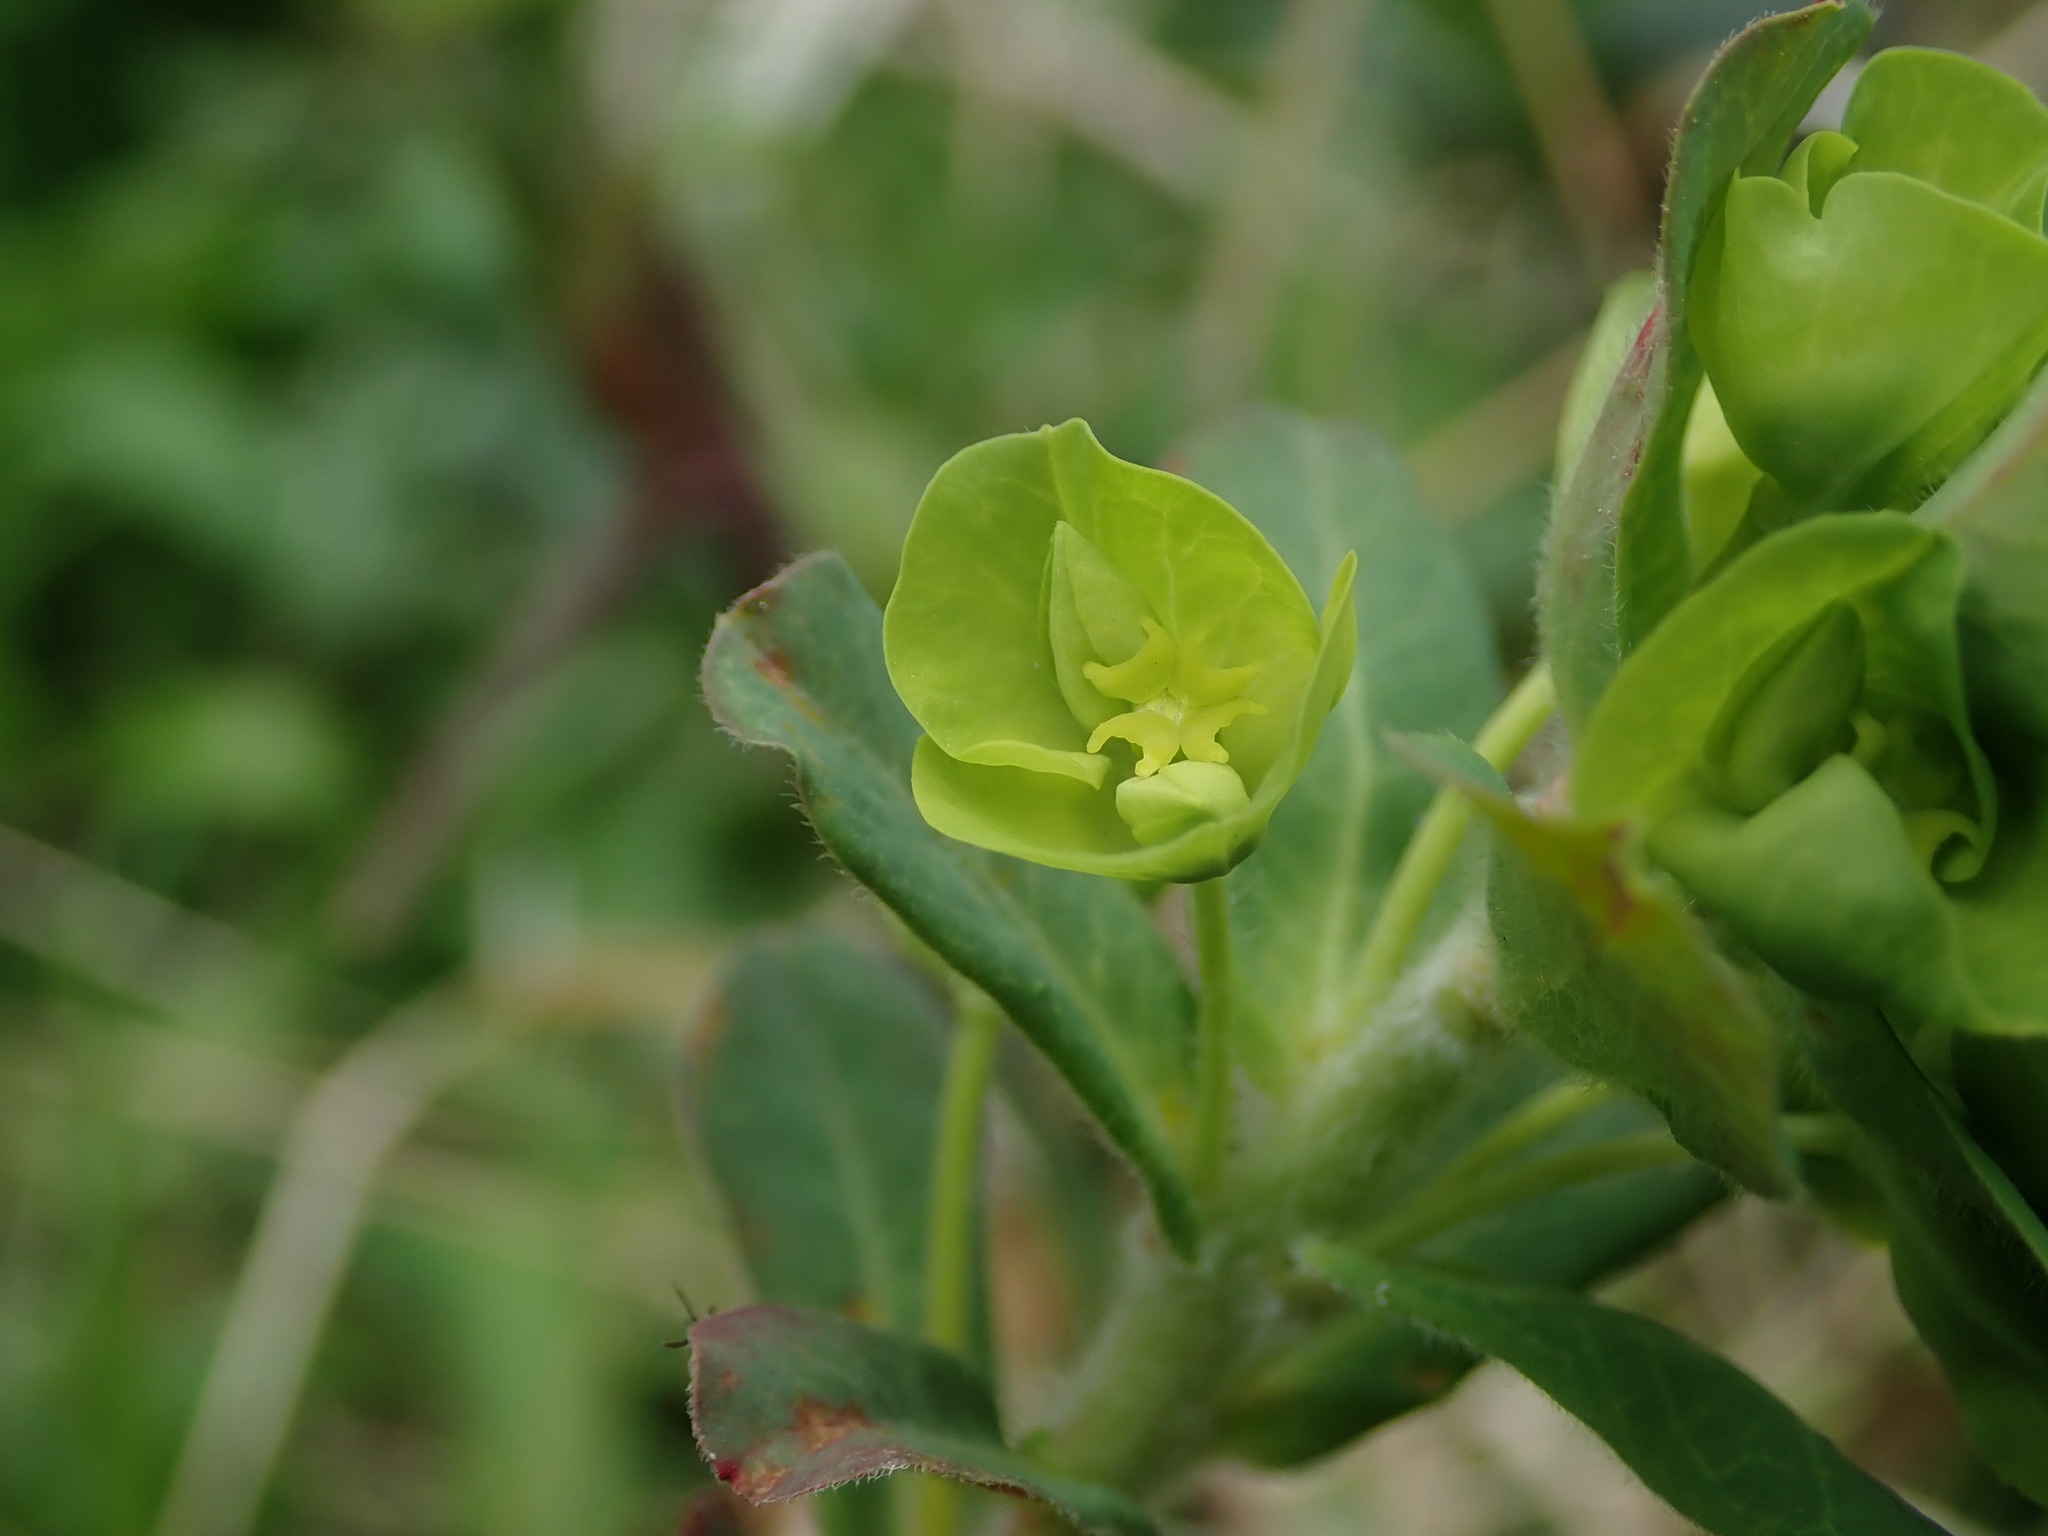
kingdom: Plantae
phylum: Tracheophyta
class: Magnoliopsida
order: Malpighiales
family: Euphorbiaceae
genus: Euphorbia
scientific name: Euphorbia amygdaloides
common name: Wood spurge
